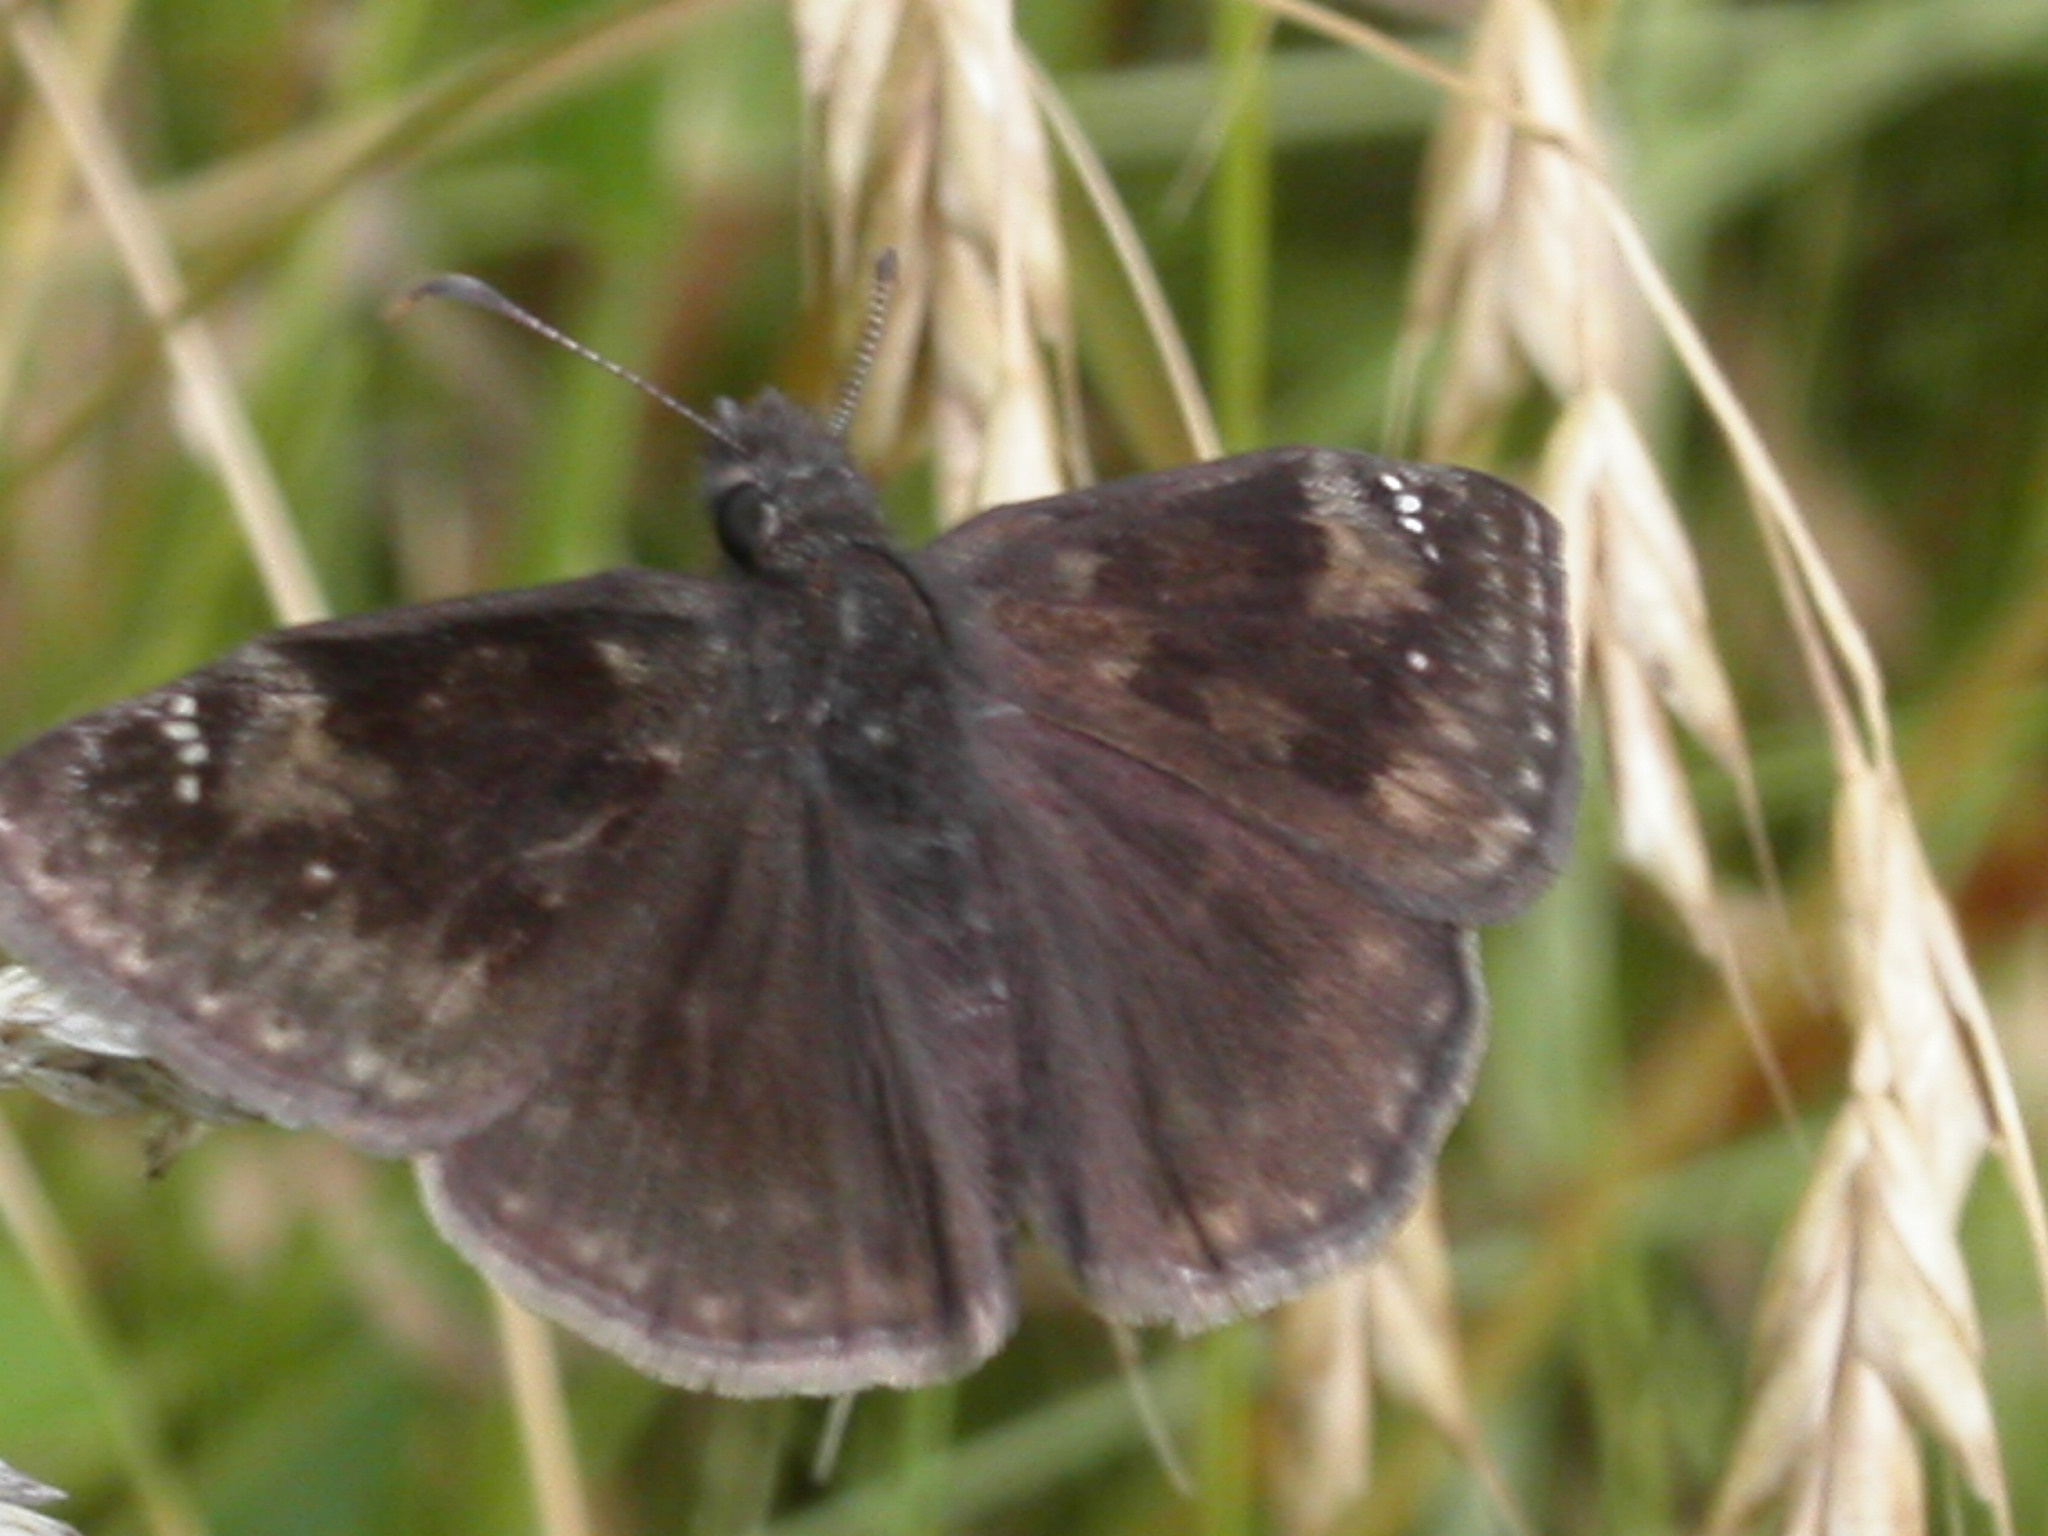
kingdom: Animalia
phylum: Arthropoda
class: Insecta
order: Lepidoptera
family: Hesperiidae
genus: Erynnis
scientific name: Erynnis baptisiae
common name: Wild indigo duskywing
